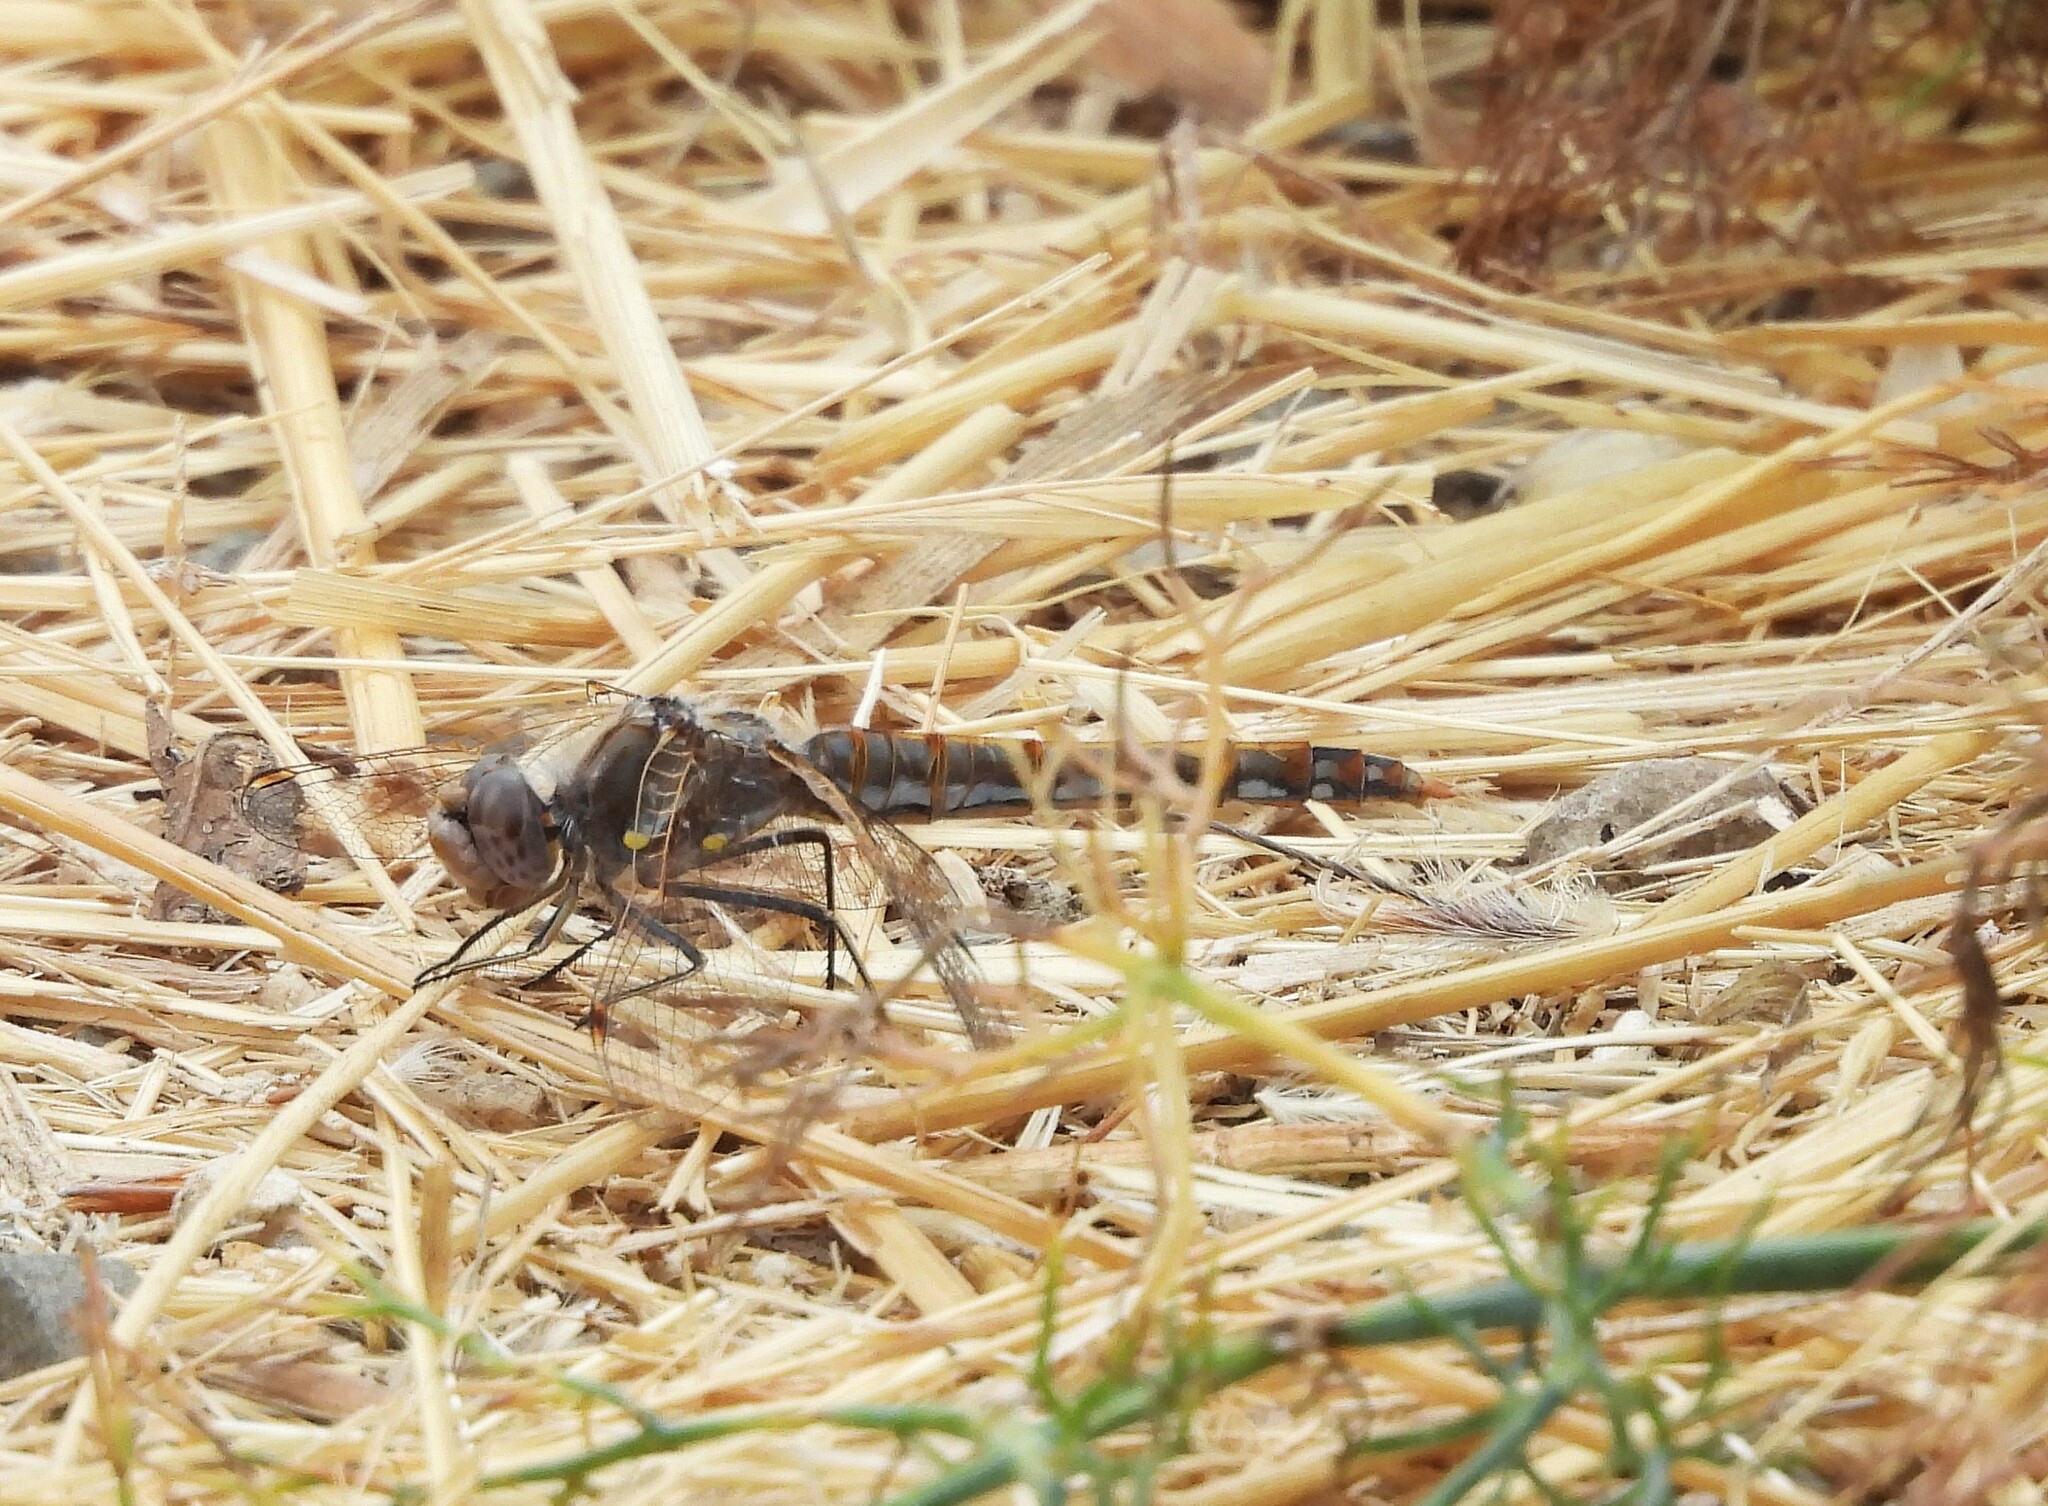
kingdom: Animalia
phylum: Arthropoda
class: Insecta
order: Odonata
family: Libellulidae
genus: Sympetrum
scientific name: Sympetrum corruptum
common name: Variegated meadowhawk
